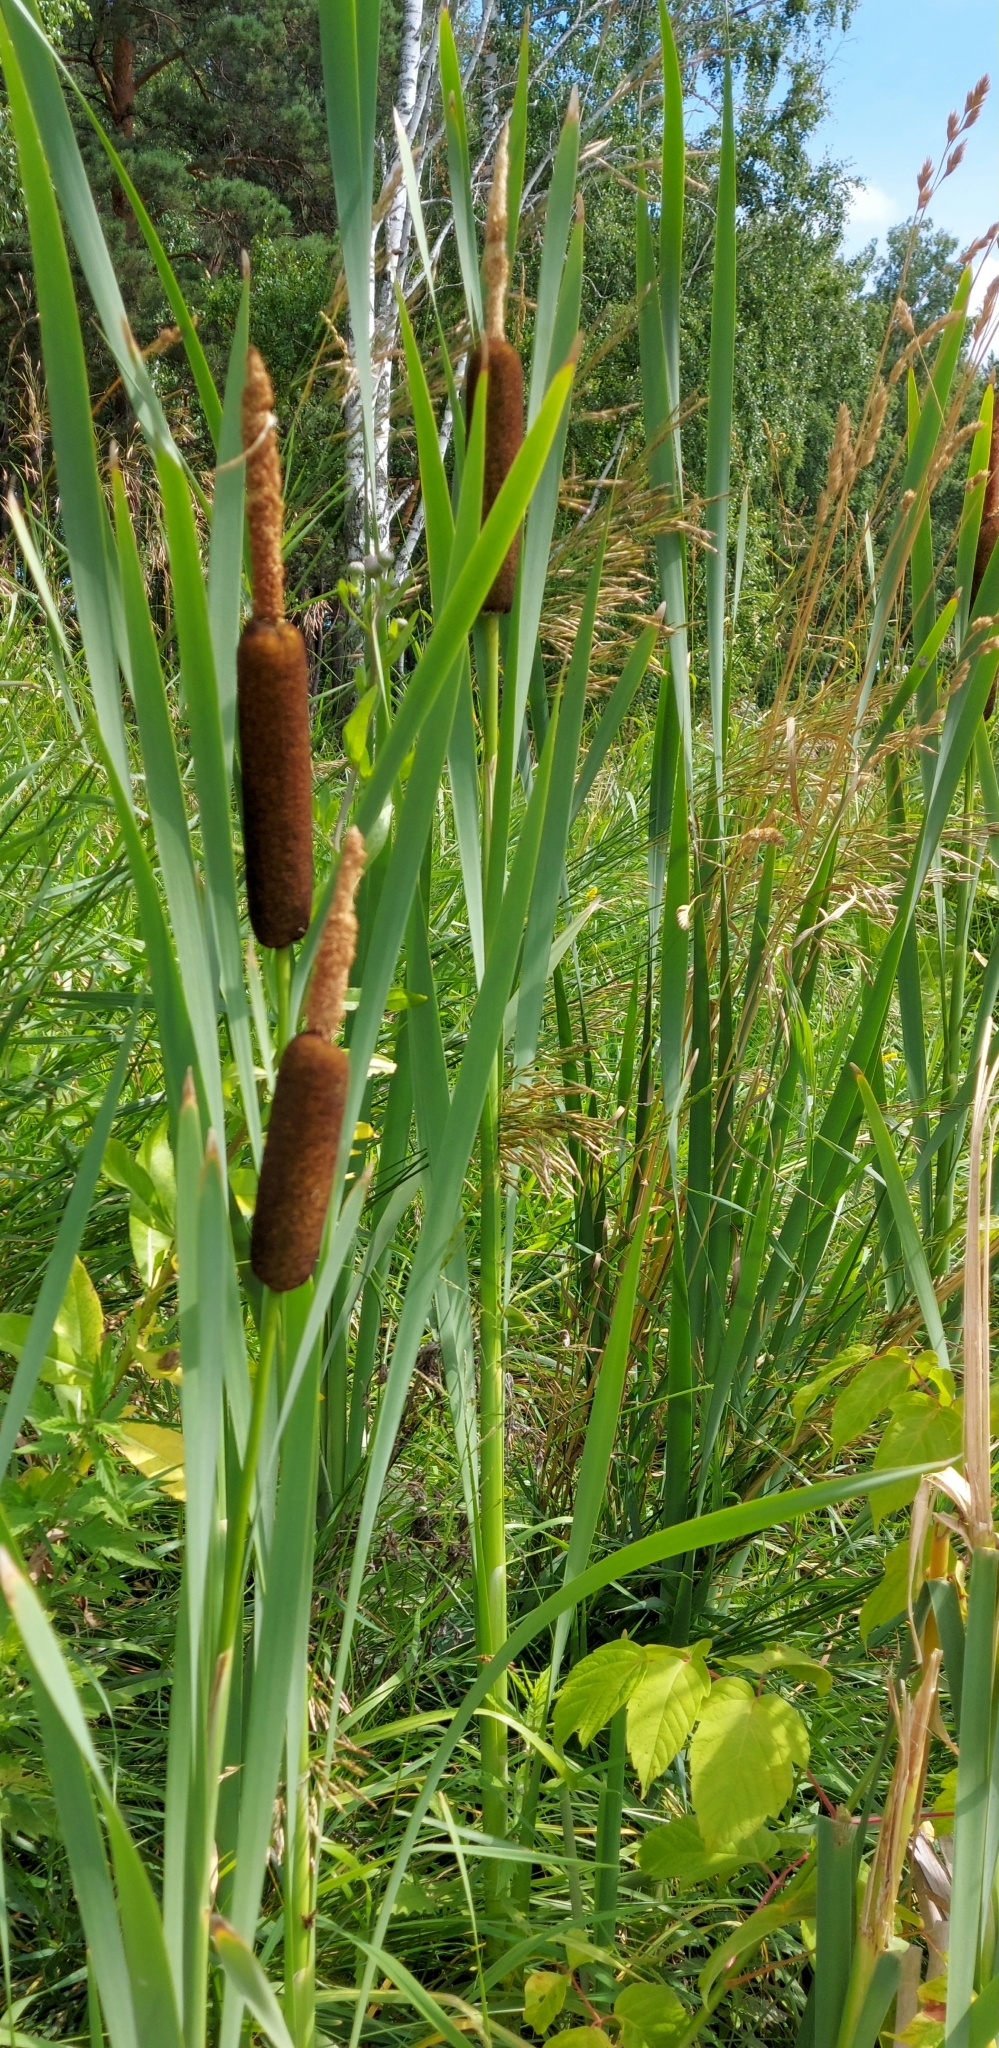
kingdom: Plantae
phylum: Tracheophyta
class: Liliopsida
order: Poales
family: Typhaceae
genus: Typha
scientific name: Typha latifolia
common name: Broadleaf cattail
